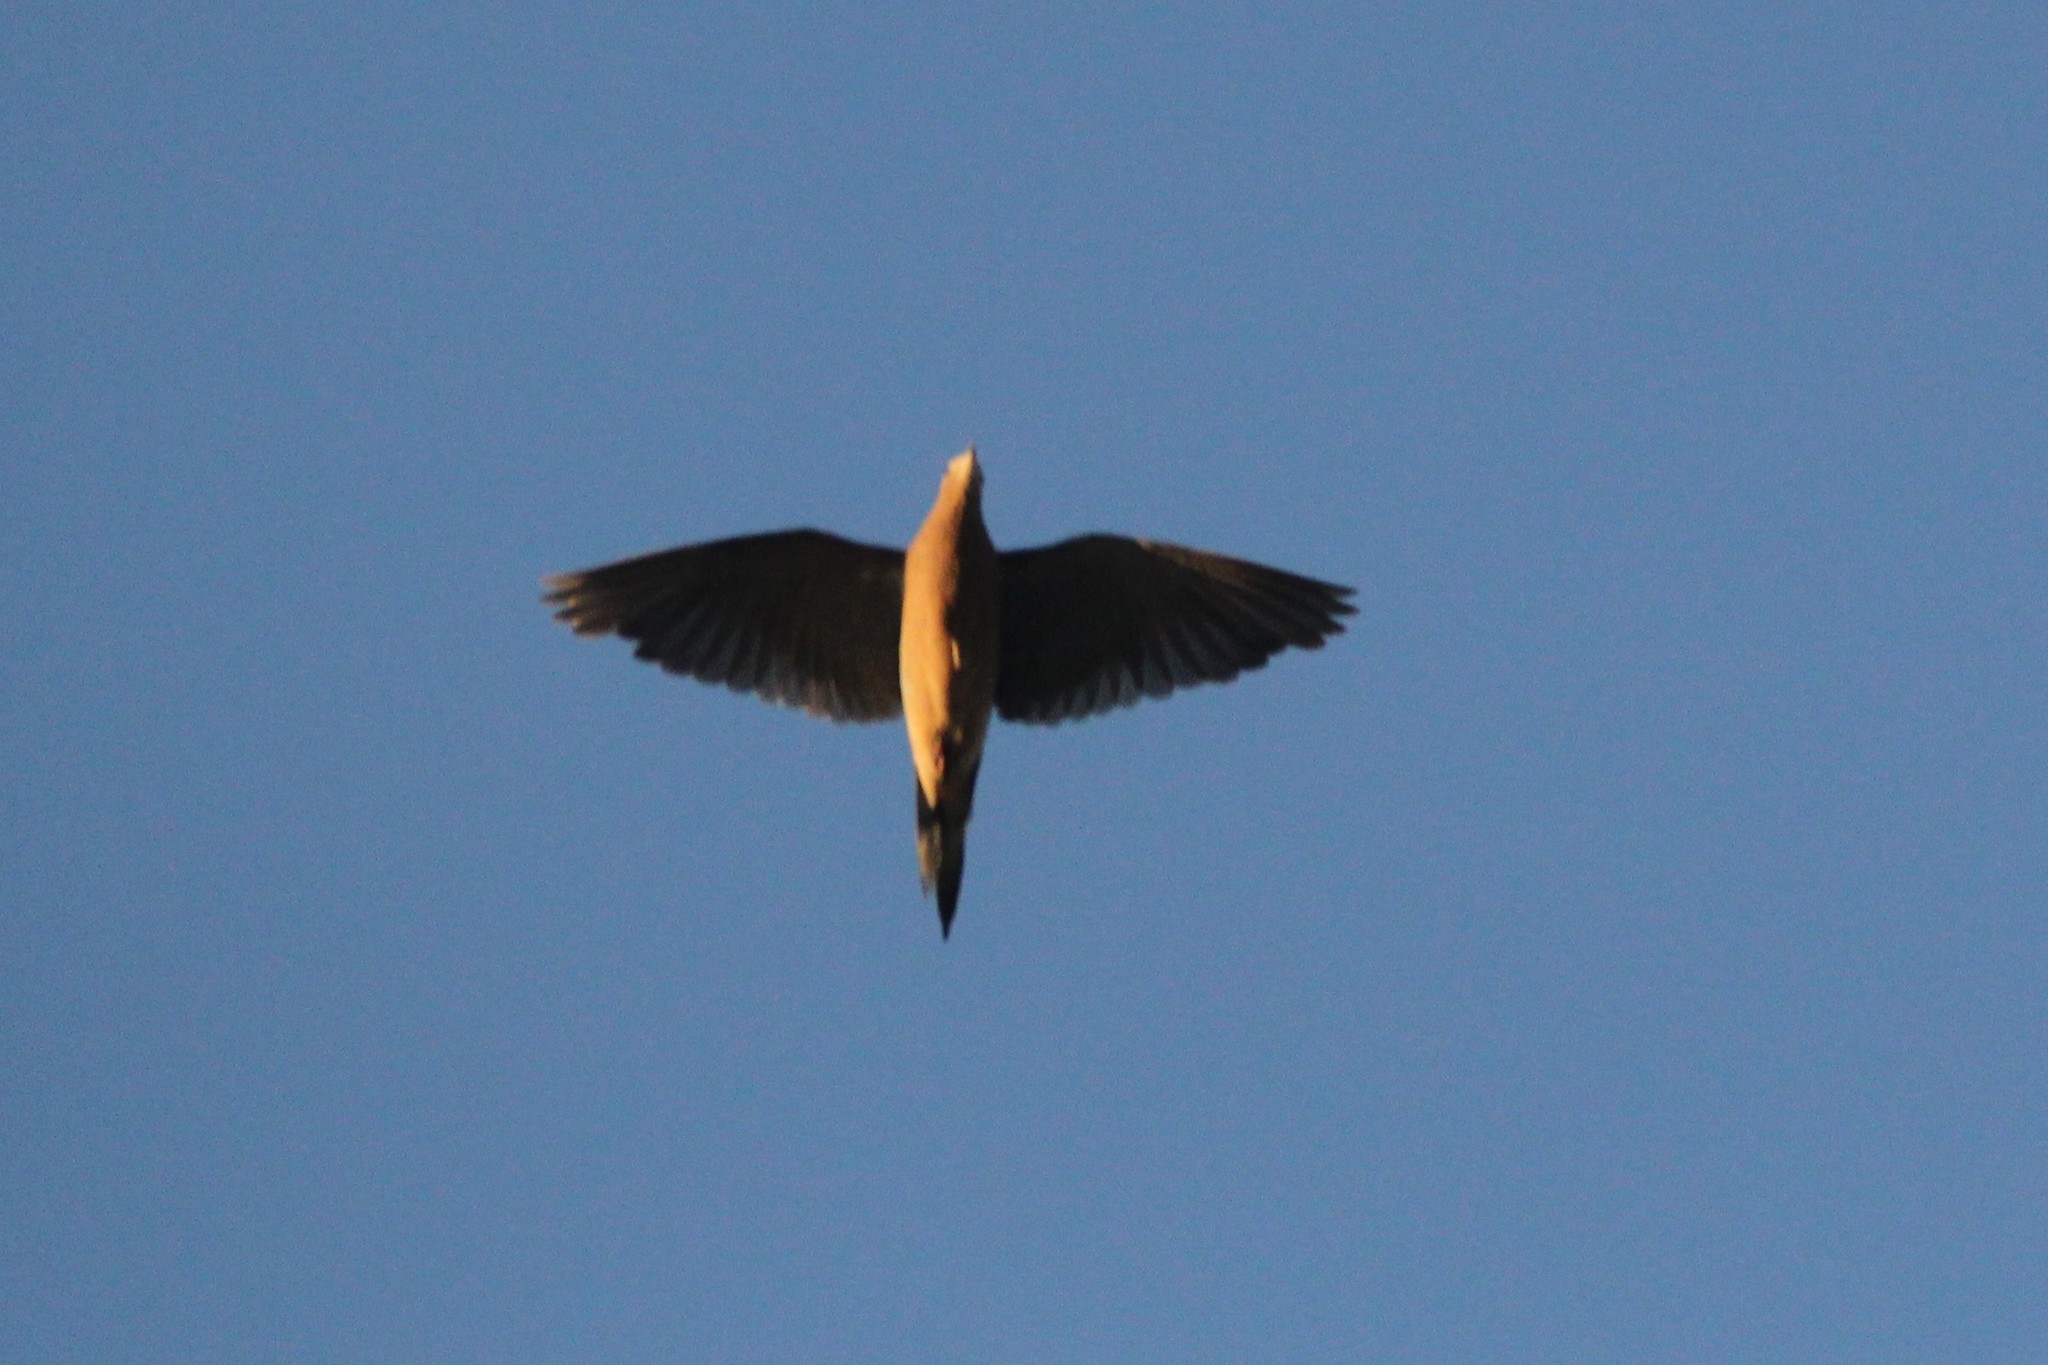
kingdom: Animalia
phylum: Chordata
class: Aves
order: Columbiformes
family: Columbidae
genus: Zenaida
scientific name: Zenaida macroura
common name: Mourning dove
